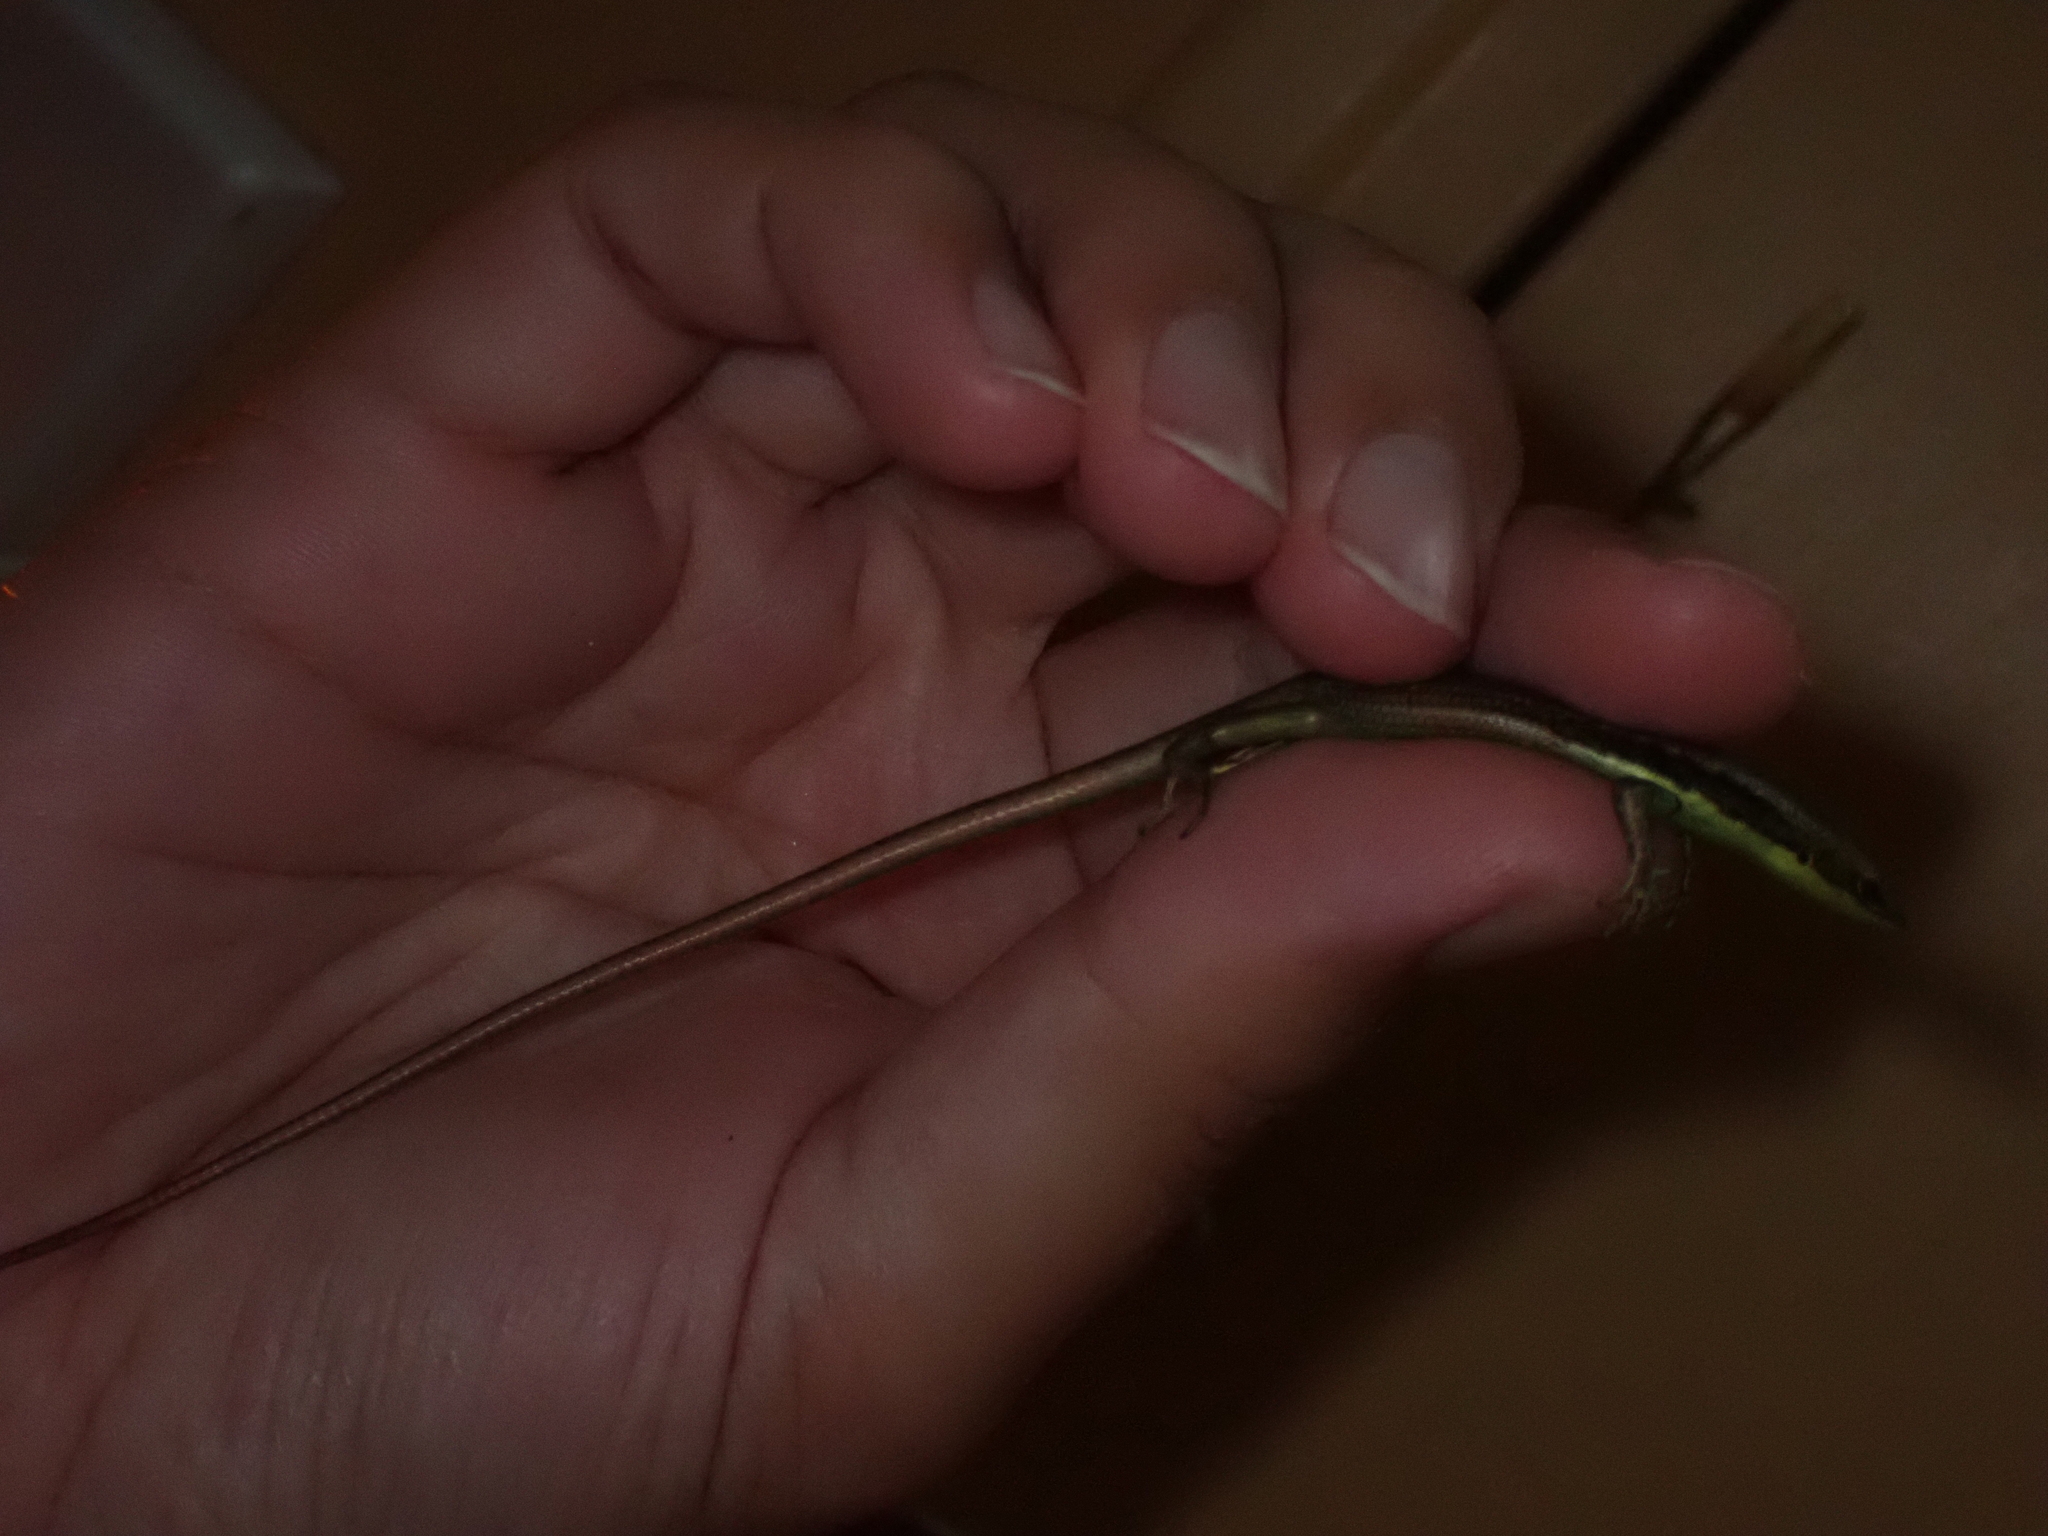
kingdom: Animalia
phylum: Chordata
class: Squamata
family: Scincidae
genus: Emoia
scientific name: Emoia cyanogaster
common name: Teal emo skink
